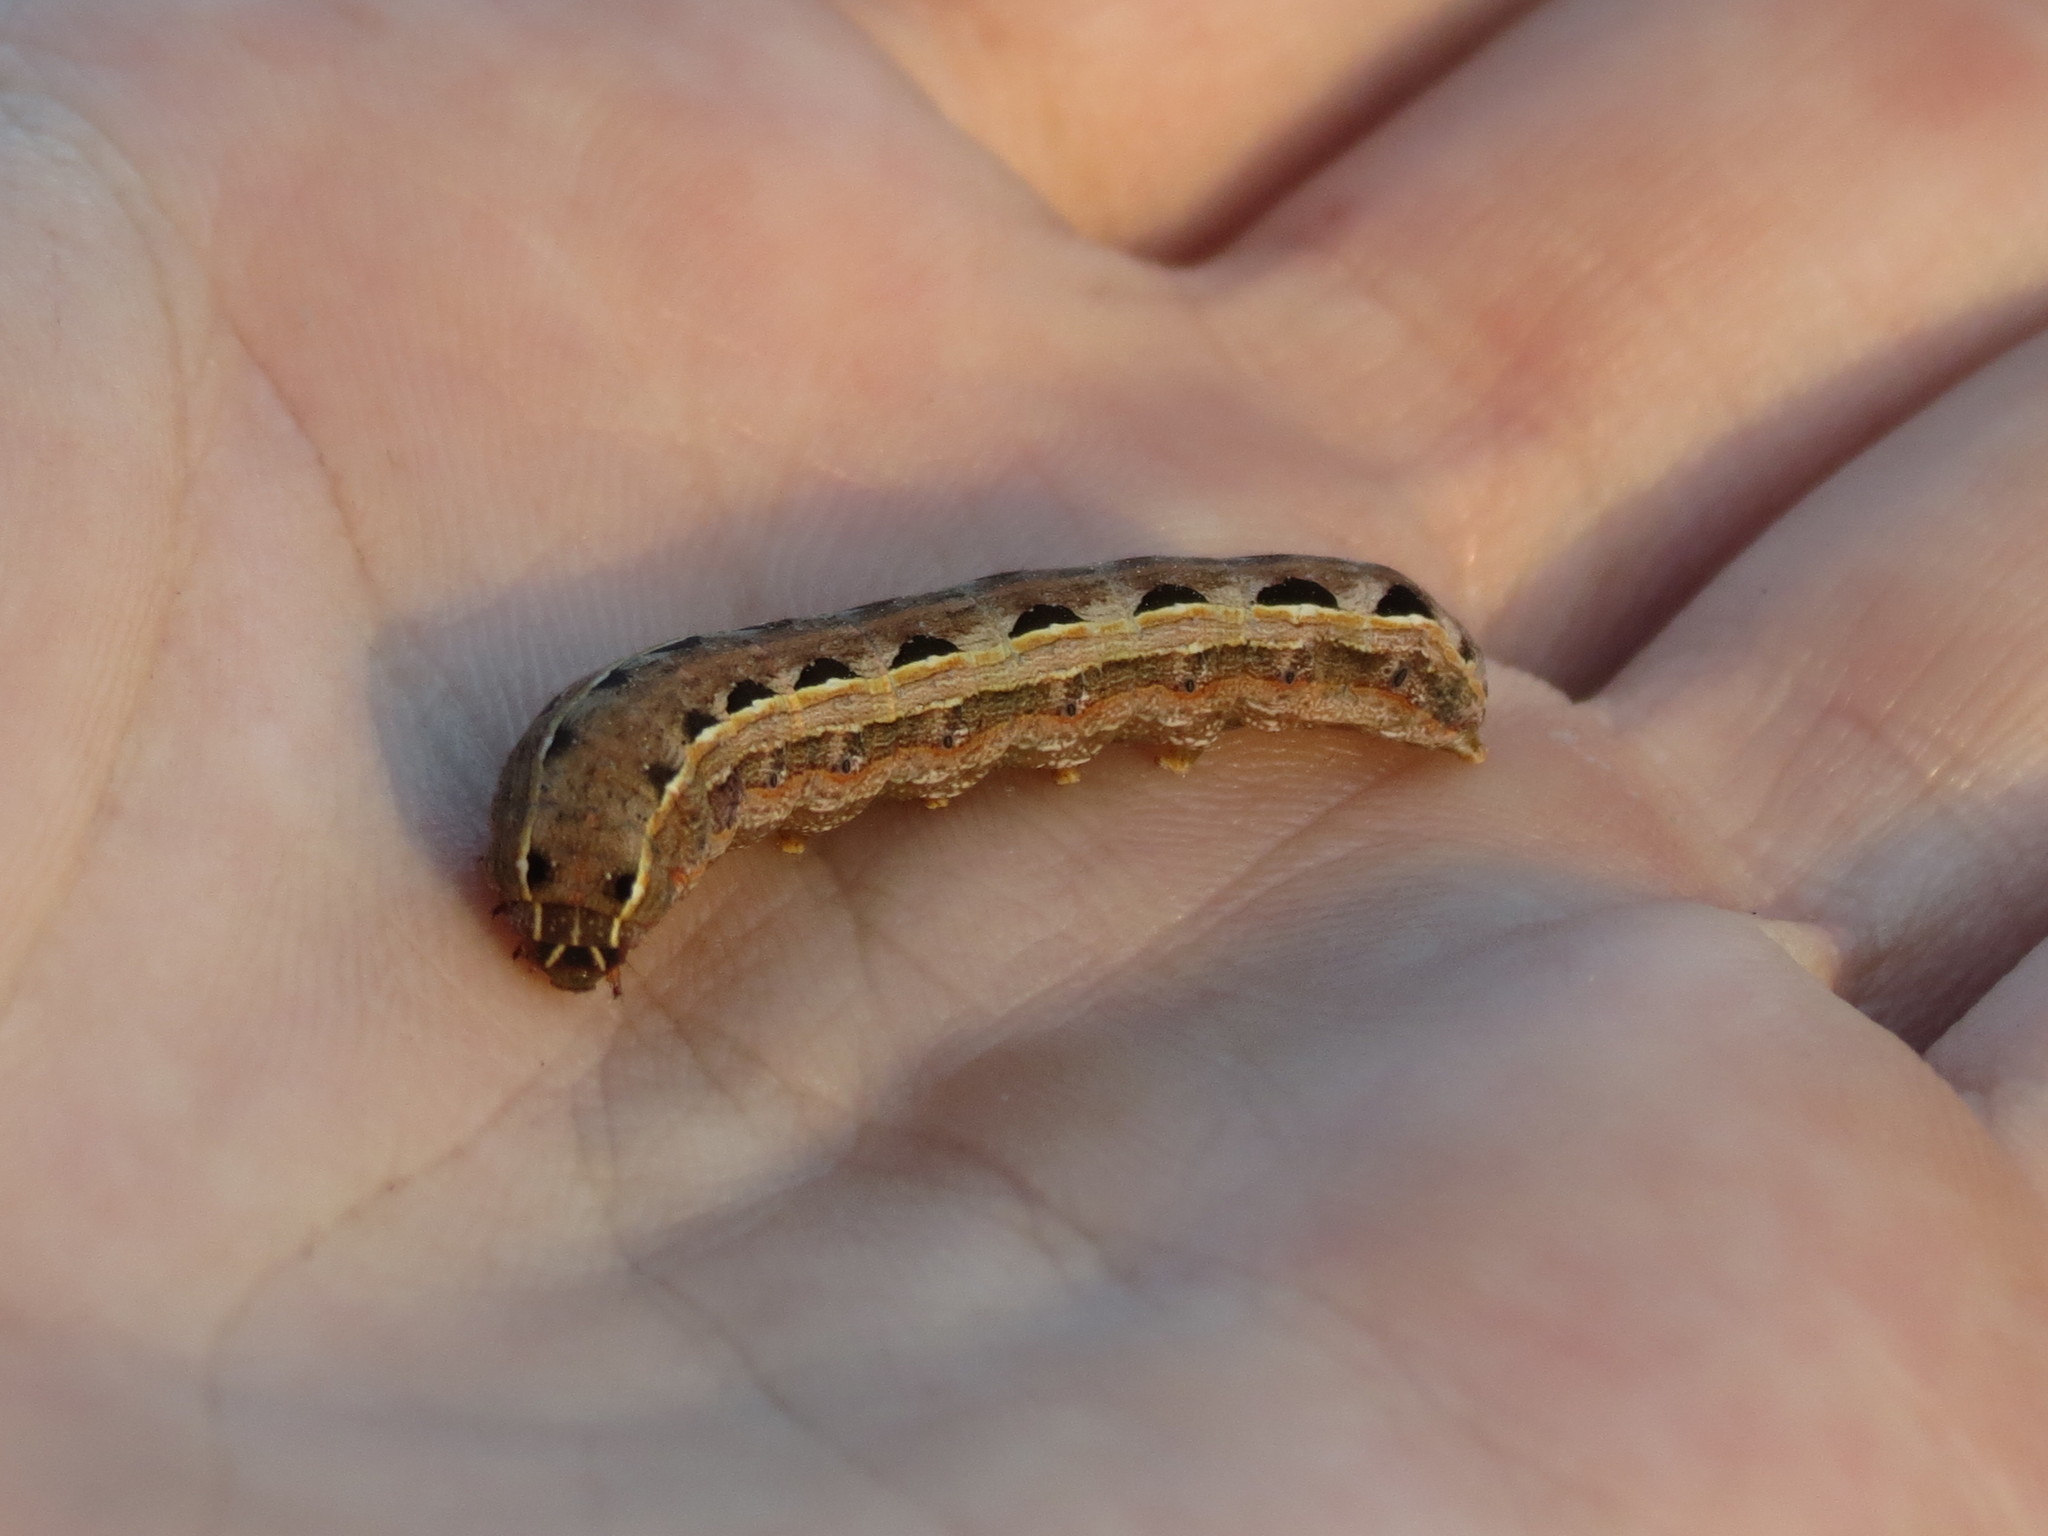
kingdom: Animalia
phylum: Arthropoda
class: Insecta
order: Lepidoptera
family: Noctuidae
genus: Spodoptera
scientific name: Spodoptera ornithogalli
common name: Yellow-striped armyworm
